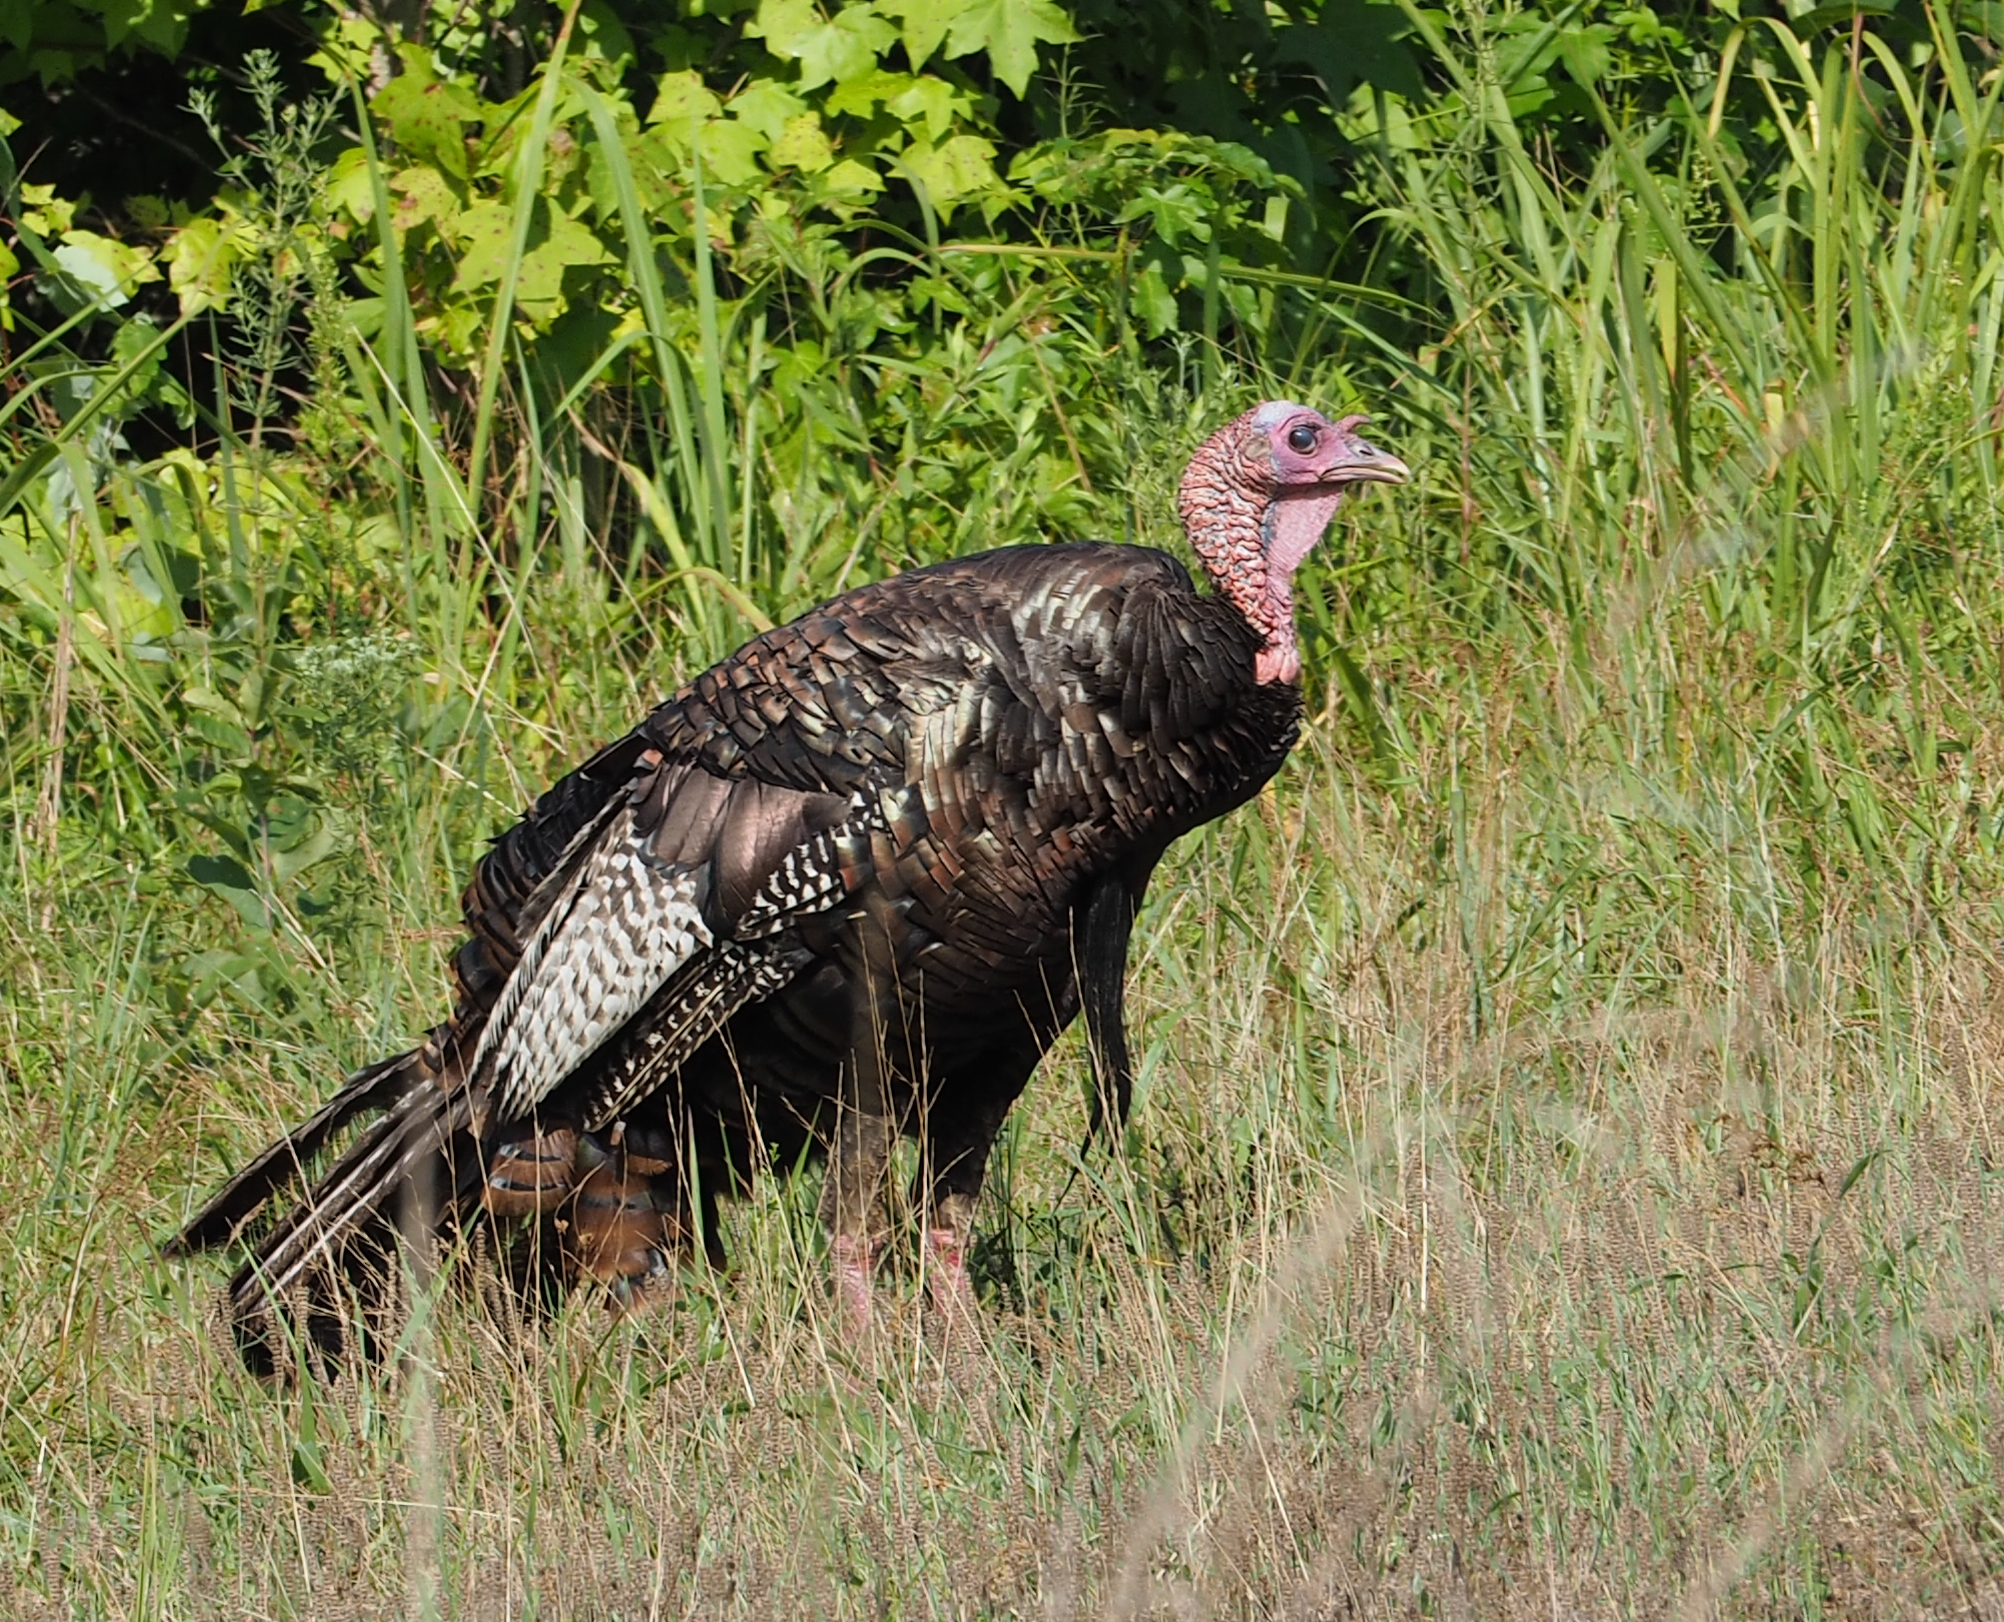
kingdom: Animalia
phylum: Chordata
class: Aves
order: Galliformes
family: Phasianidae
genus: Meleagris
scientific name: Meleagris gallopavo
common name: Wild turkey
